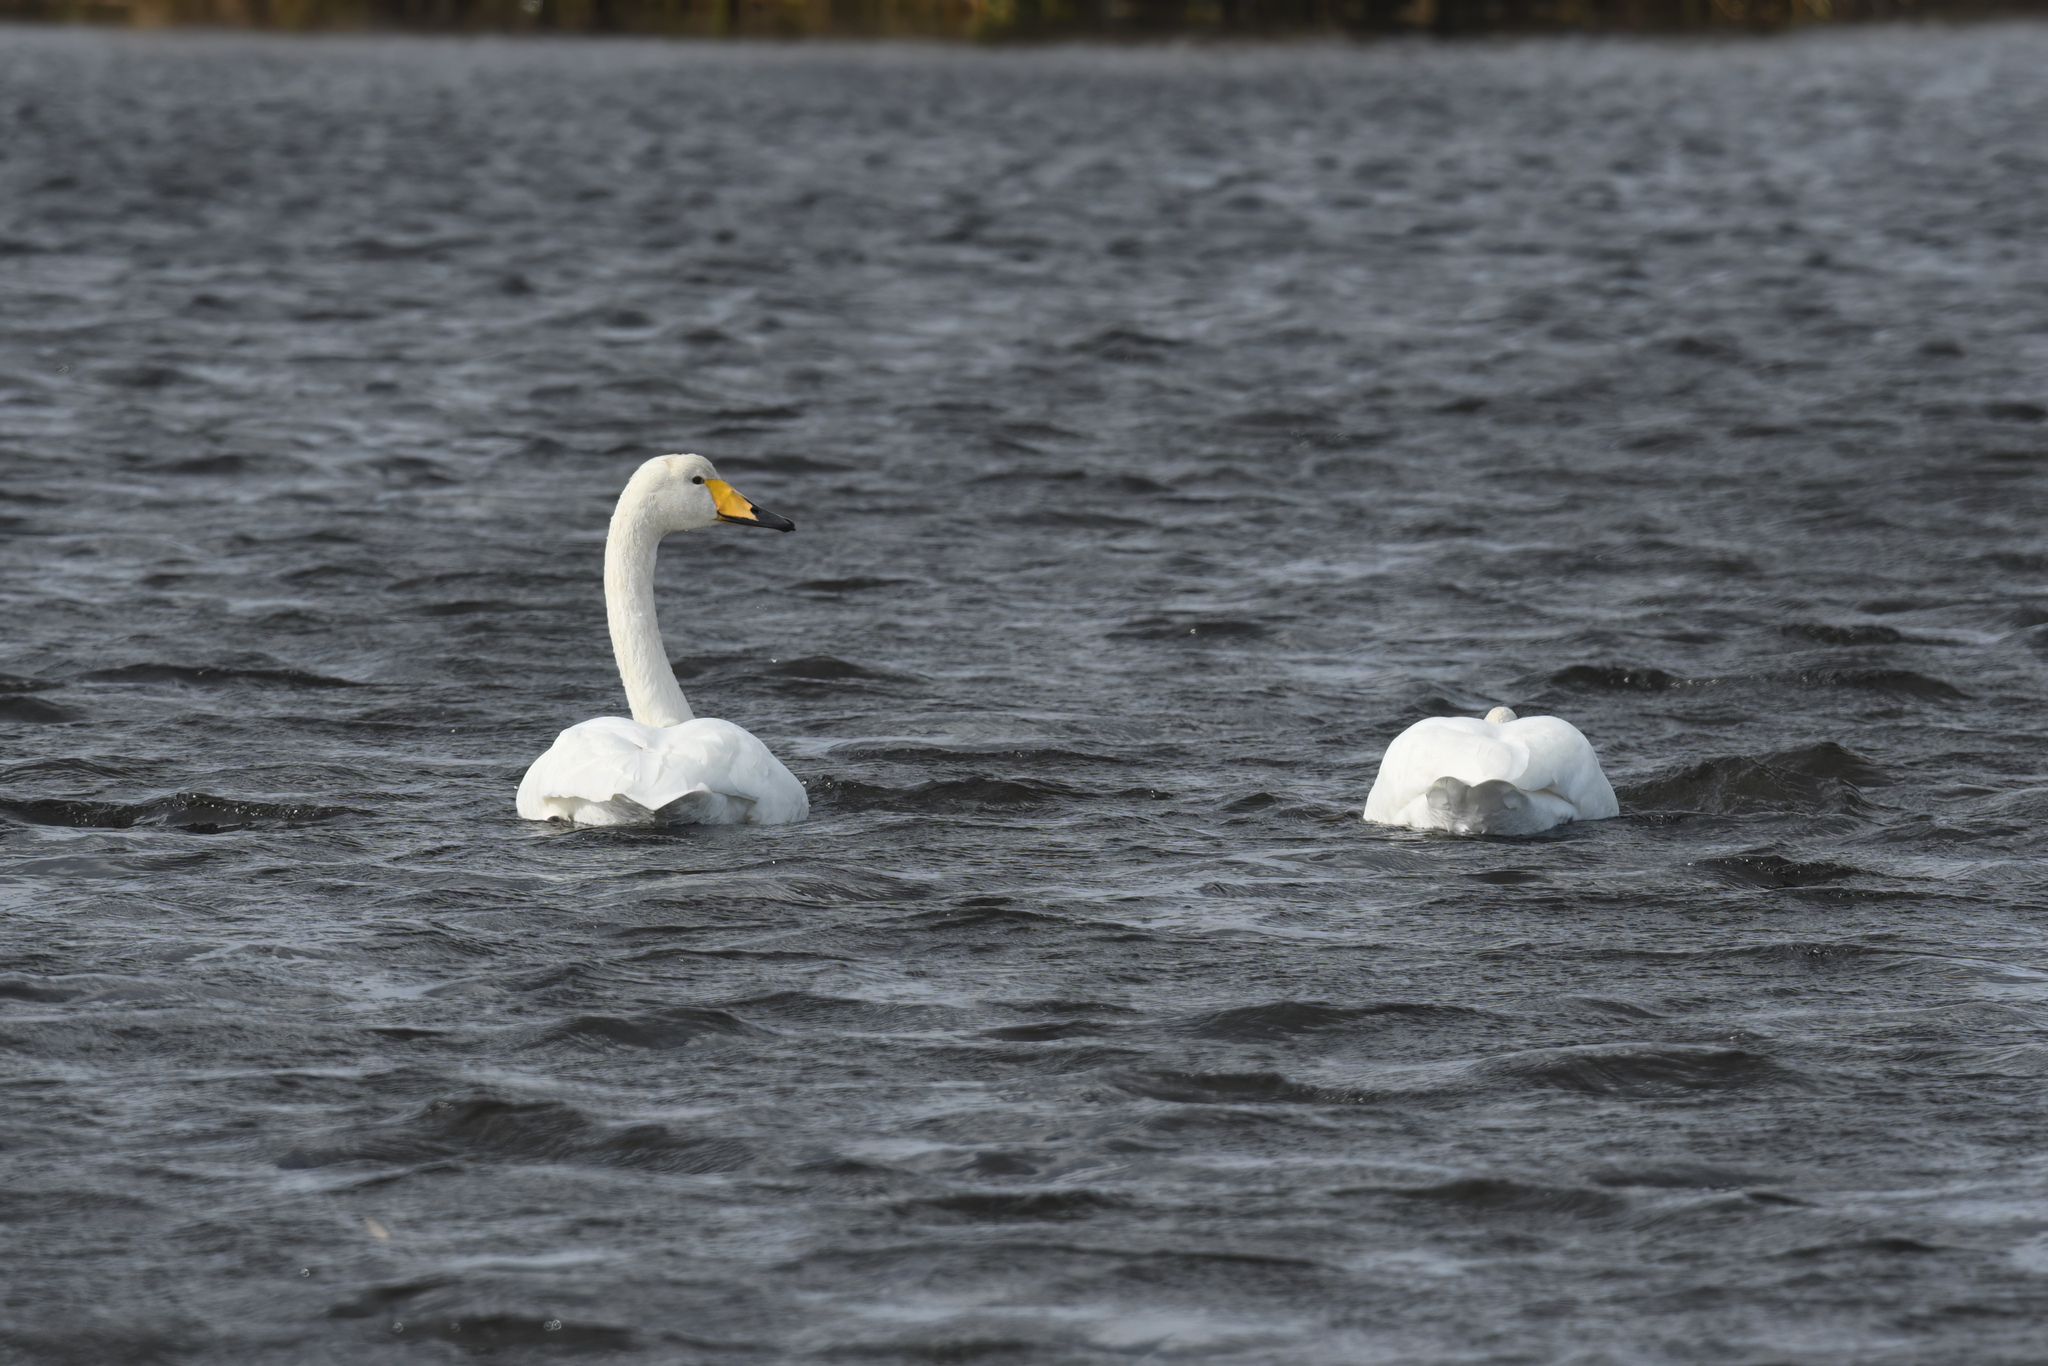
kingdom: Animalia
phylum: Chordata
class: Aves
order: Anseriformes
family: Anatidae
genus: Cygnus
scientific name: Cygnus cygnus
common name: Whooper swan
